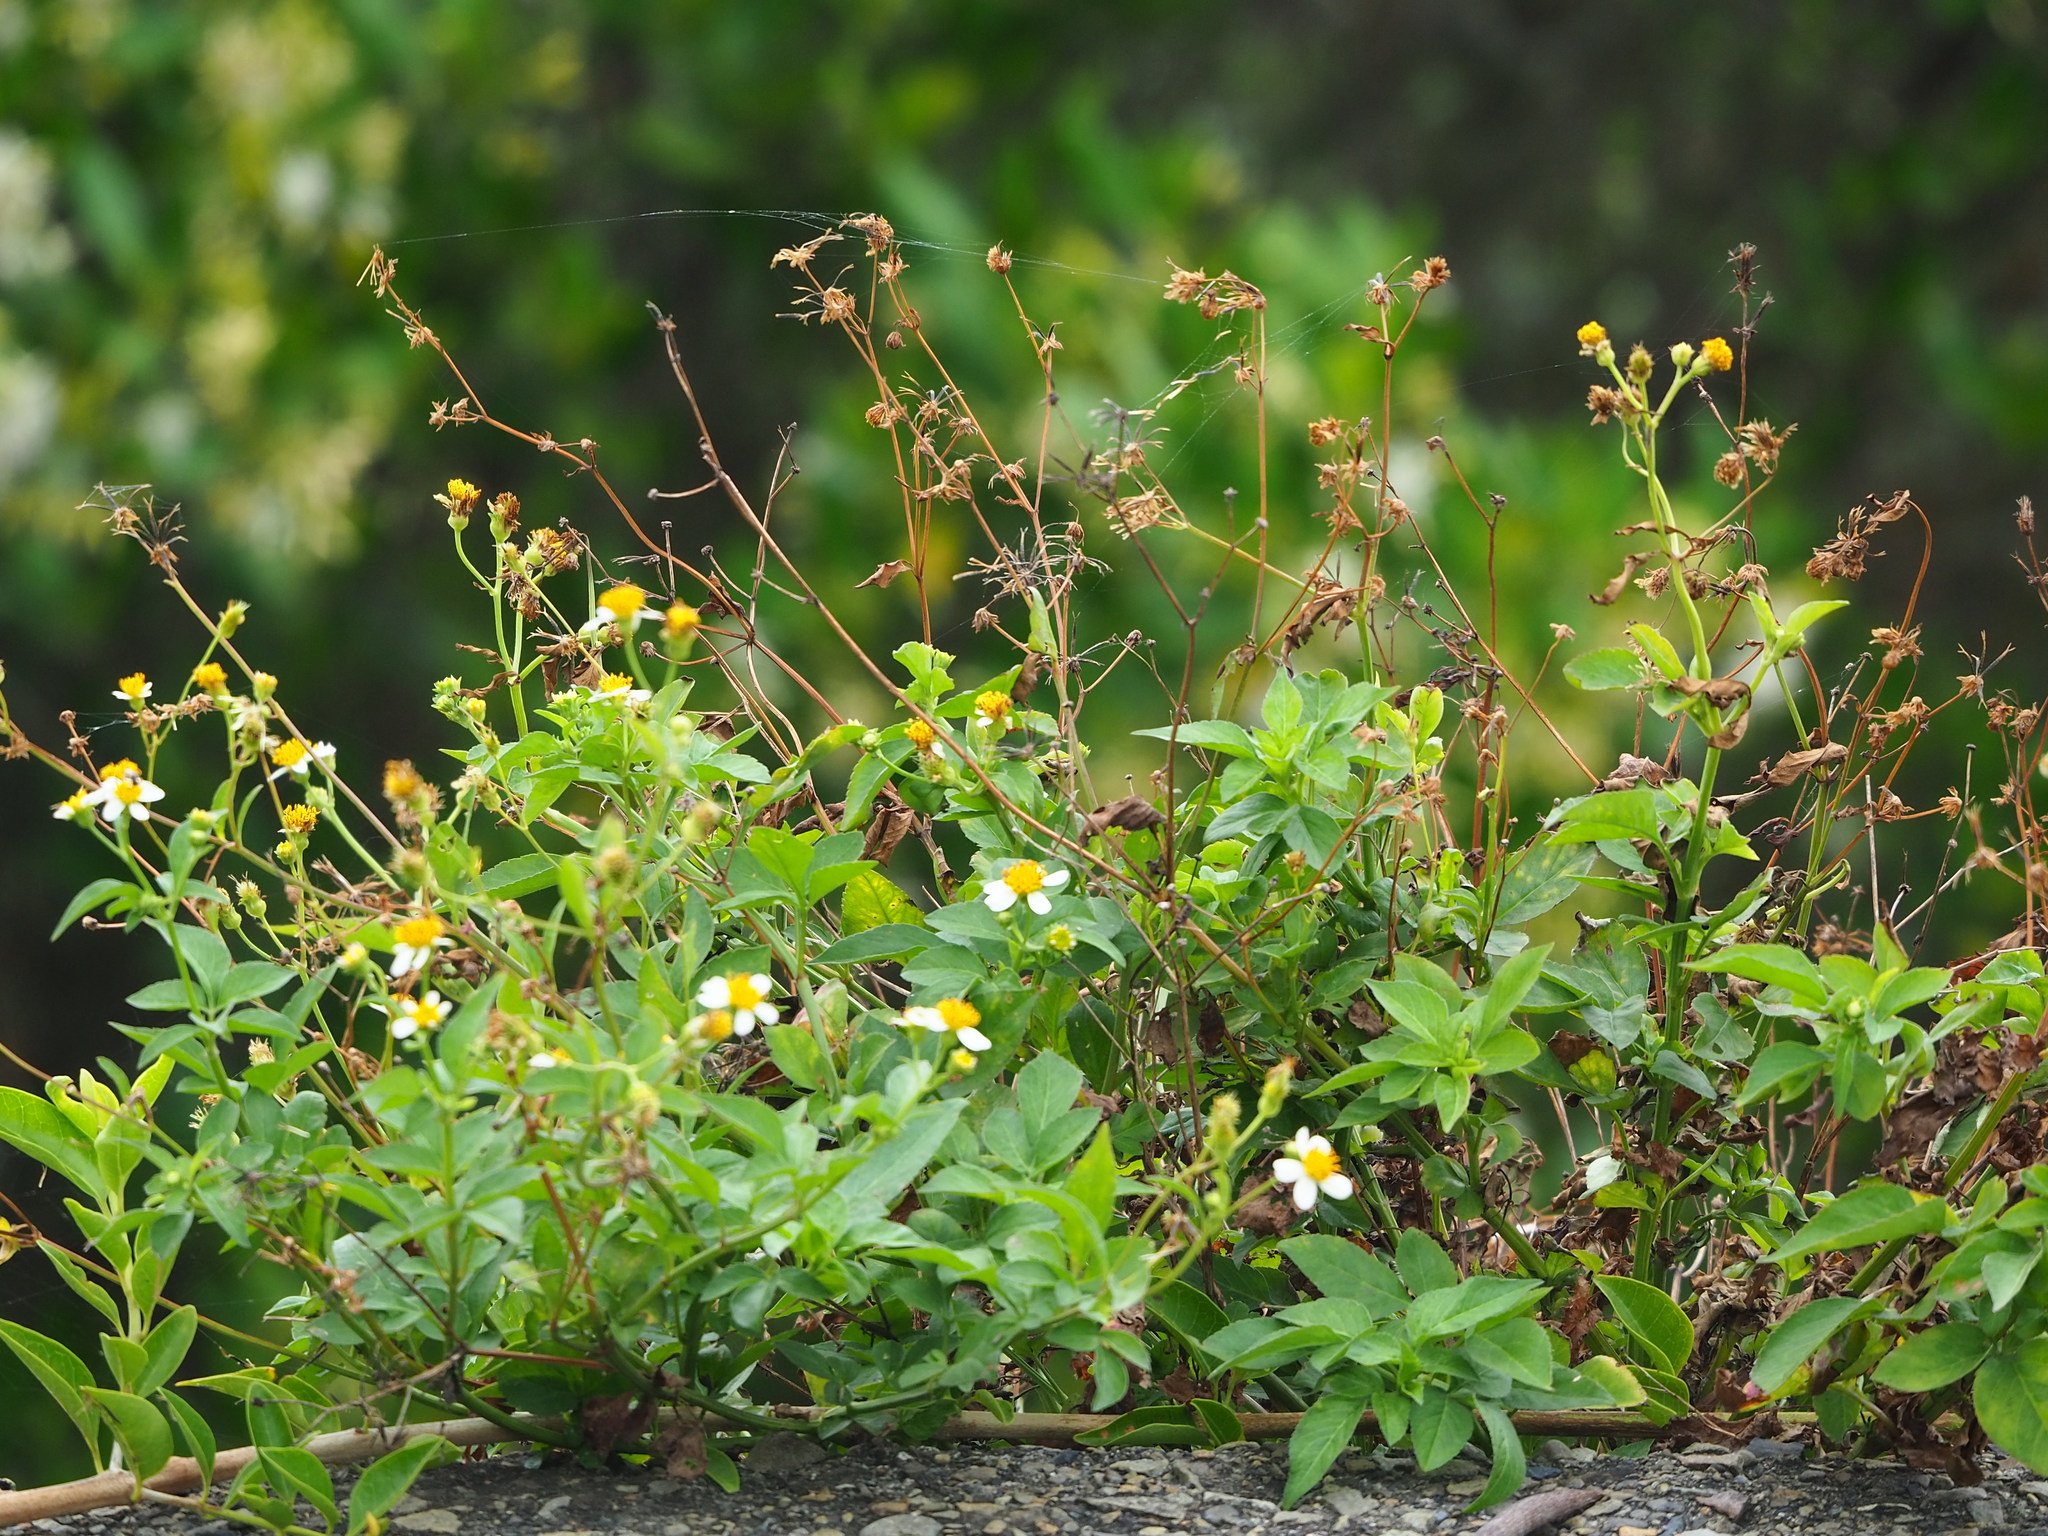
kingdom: Plantae
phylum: Tracheophyta
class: Magnoliopsida
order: Asterales
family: Asteraceae
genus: Bidens
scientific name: Bidens alba
